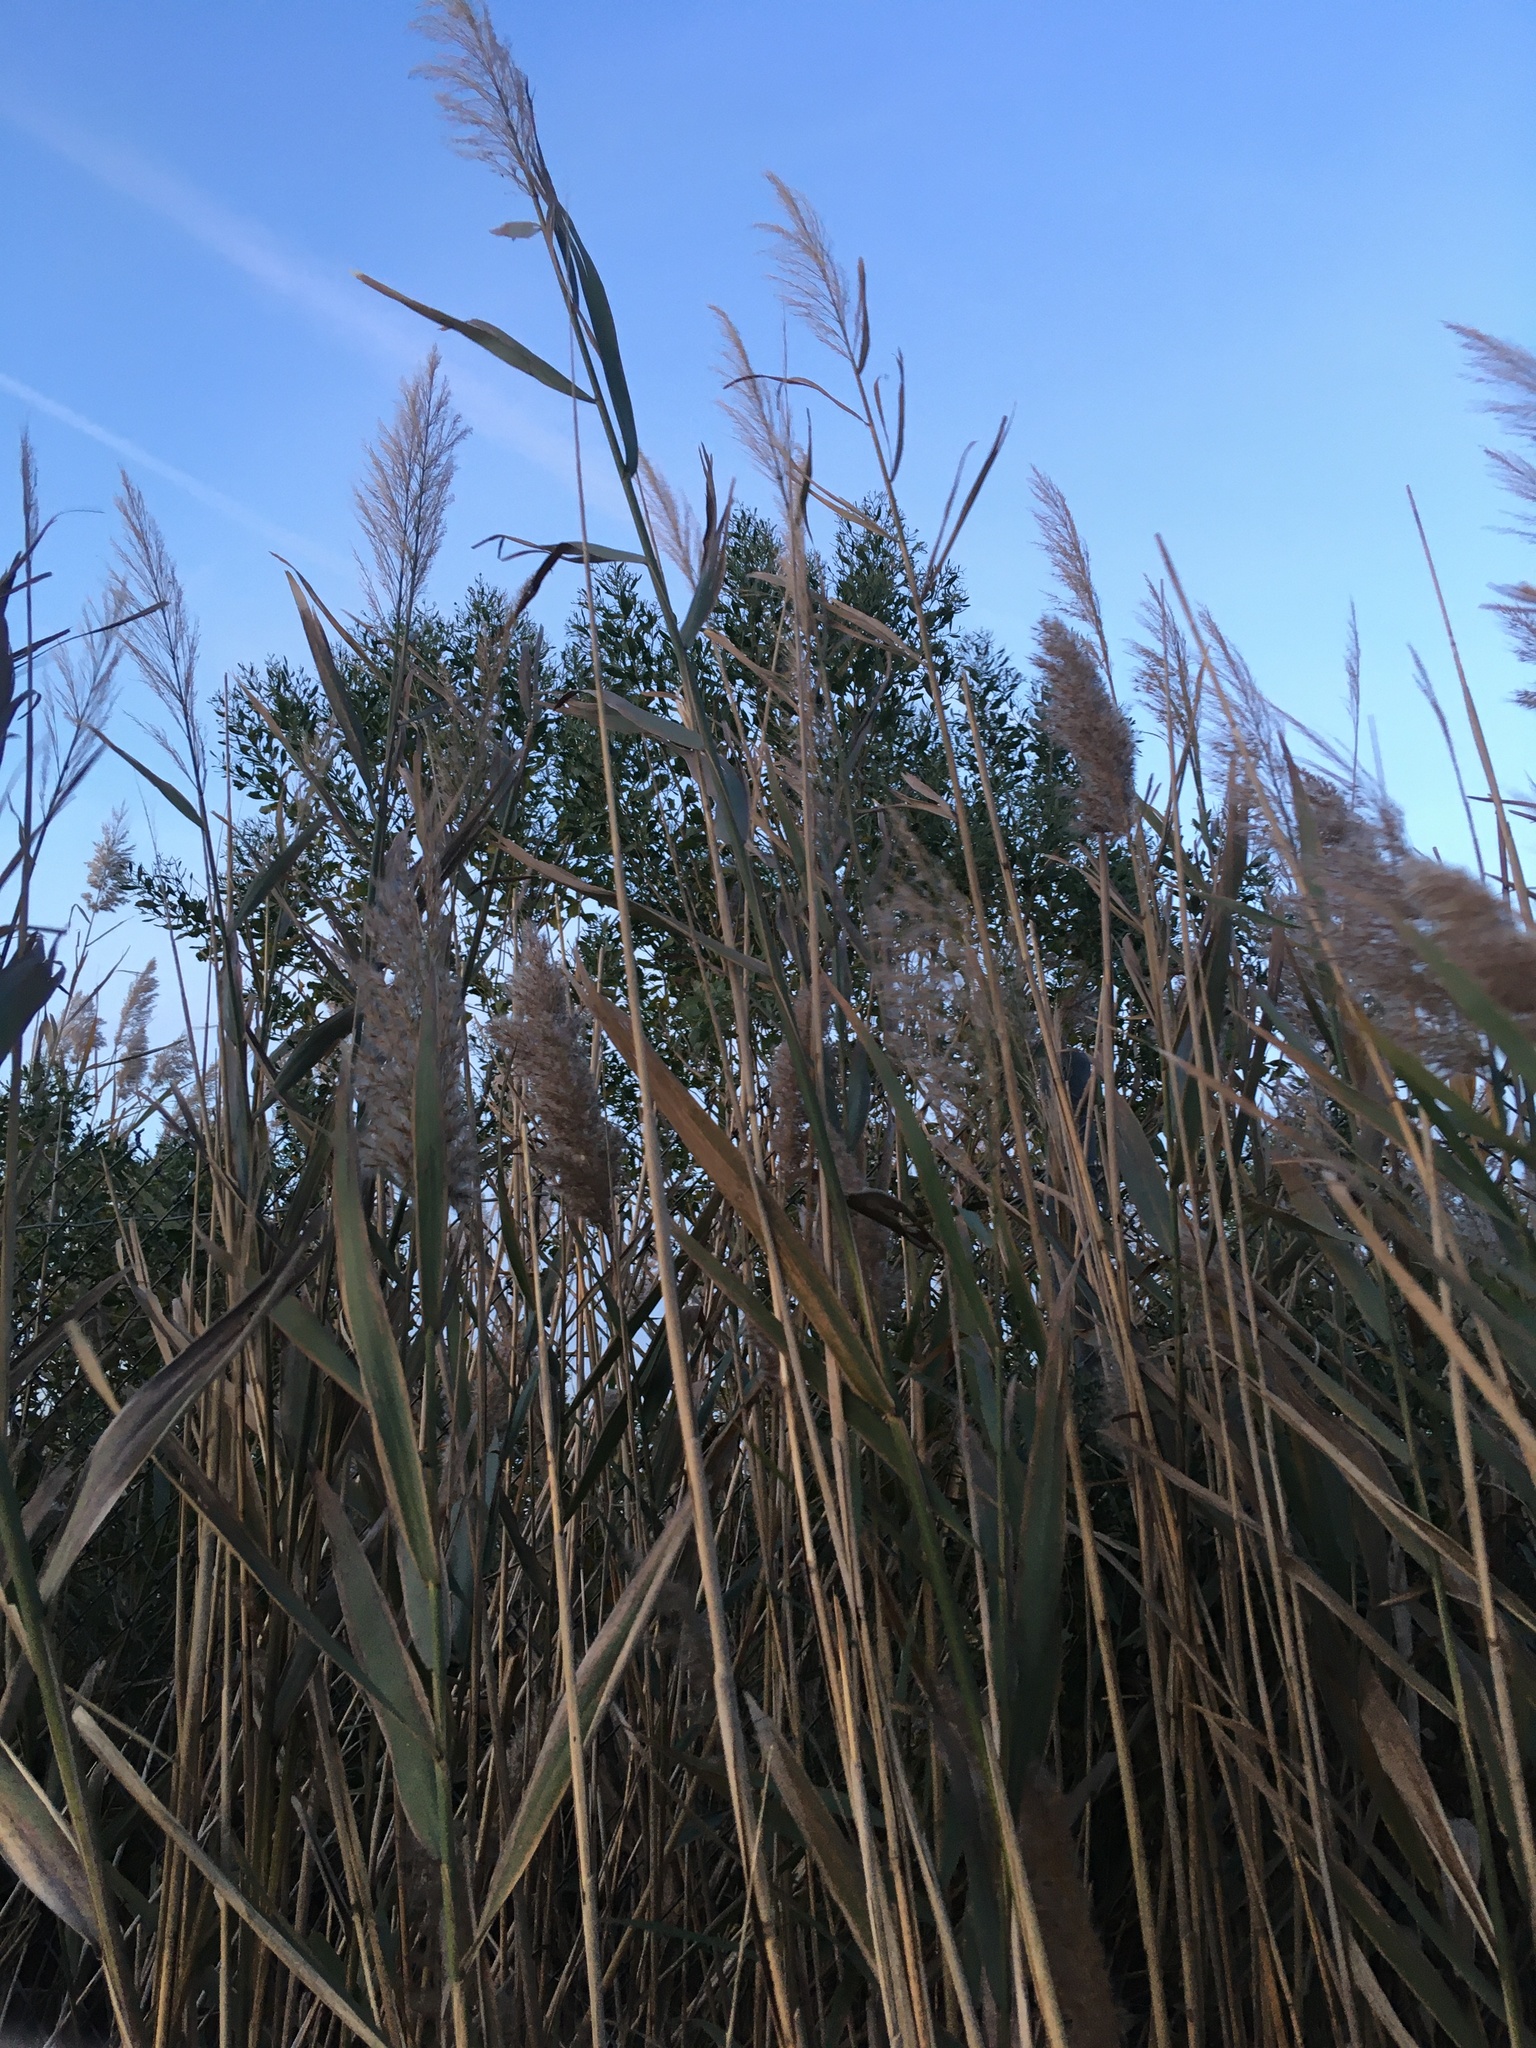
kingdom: Plantae
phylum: Tracheophyta
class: Magnoliopsida
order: Asterales
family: Asteraceae
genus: Baccharis
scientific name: Baccharis halimifolia
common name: Eastern baccharis
